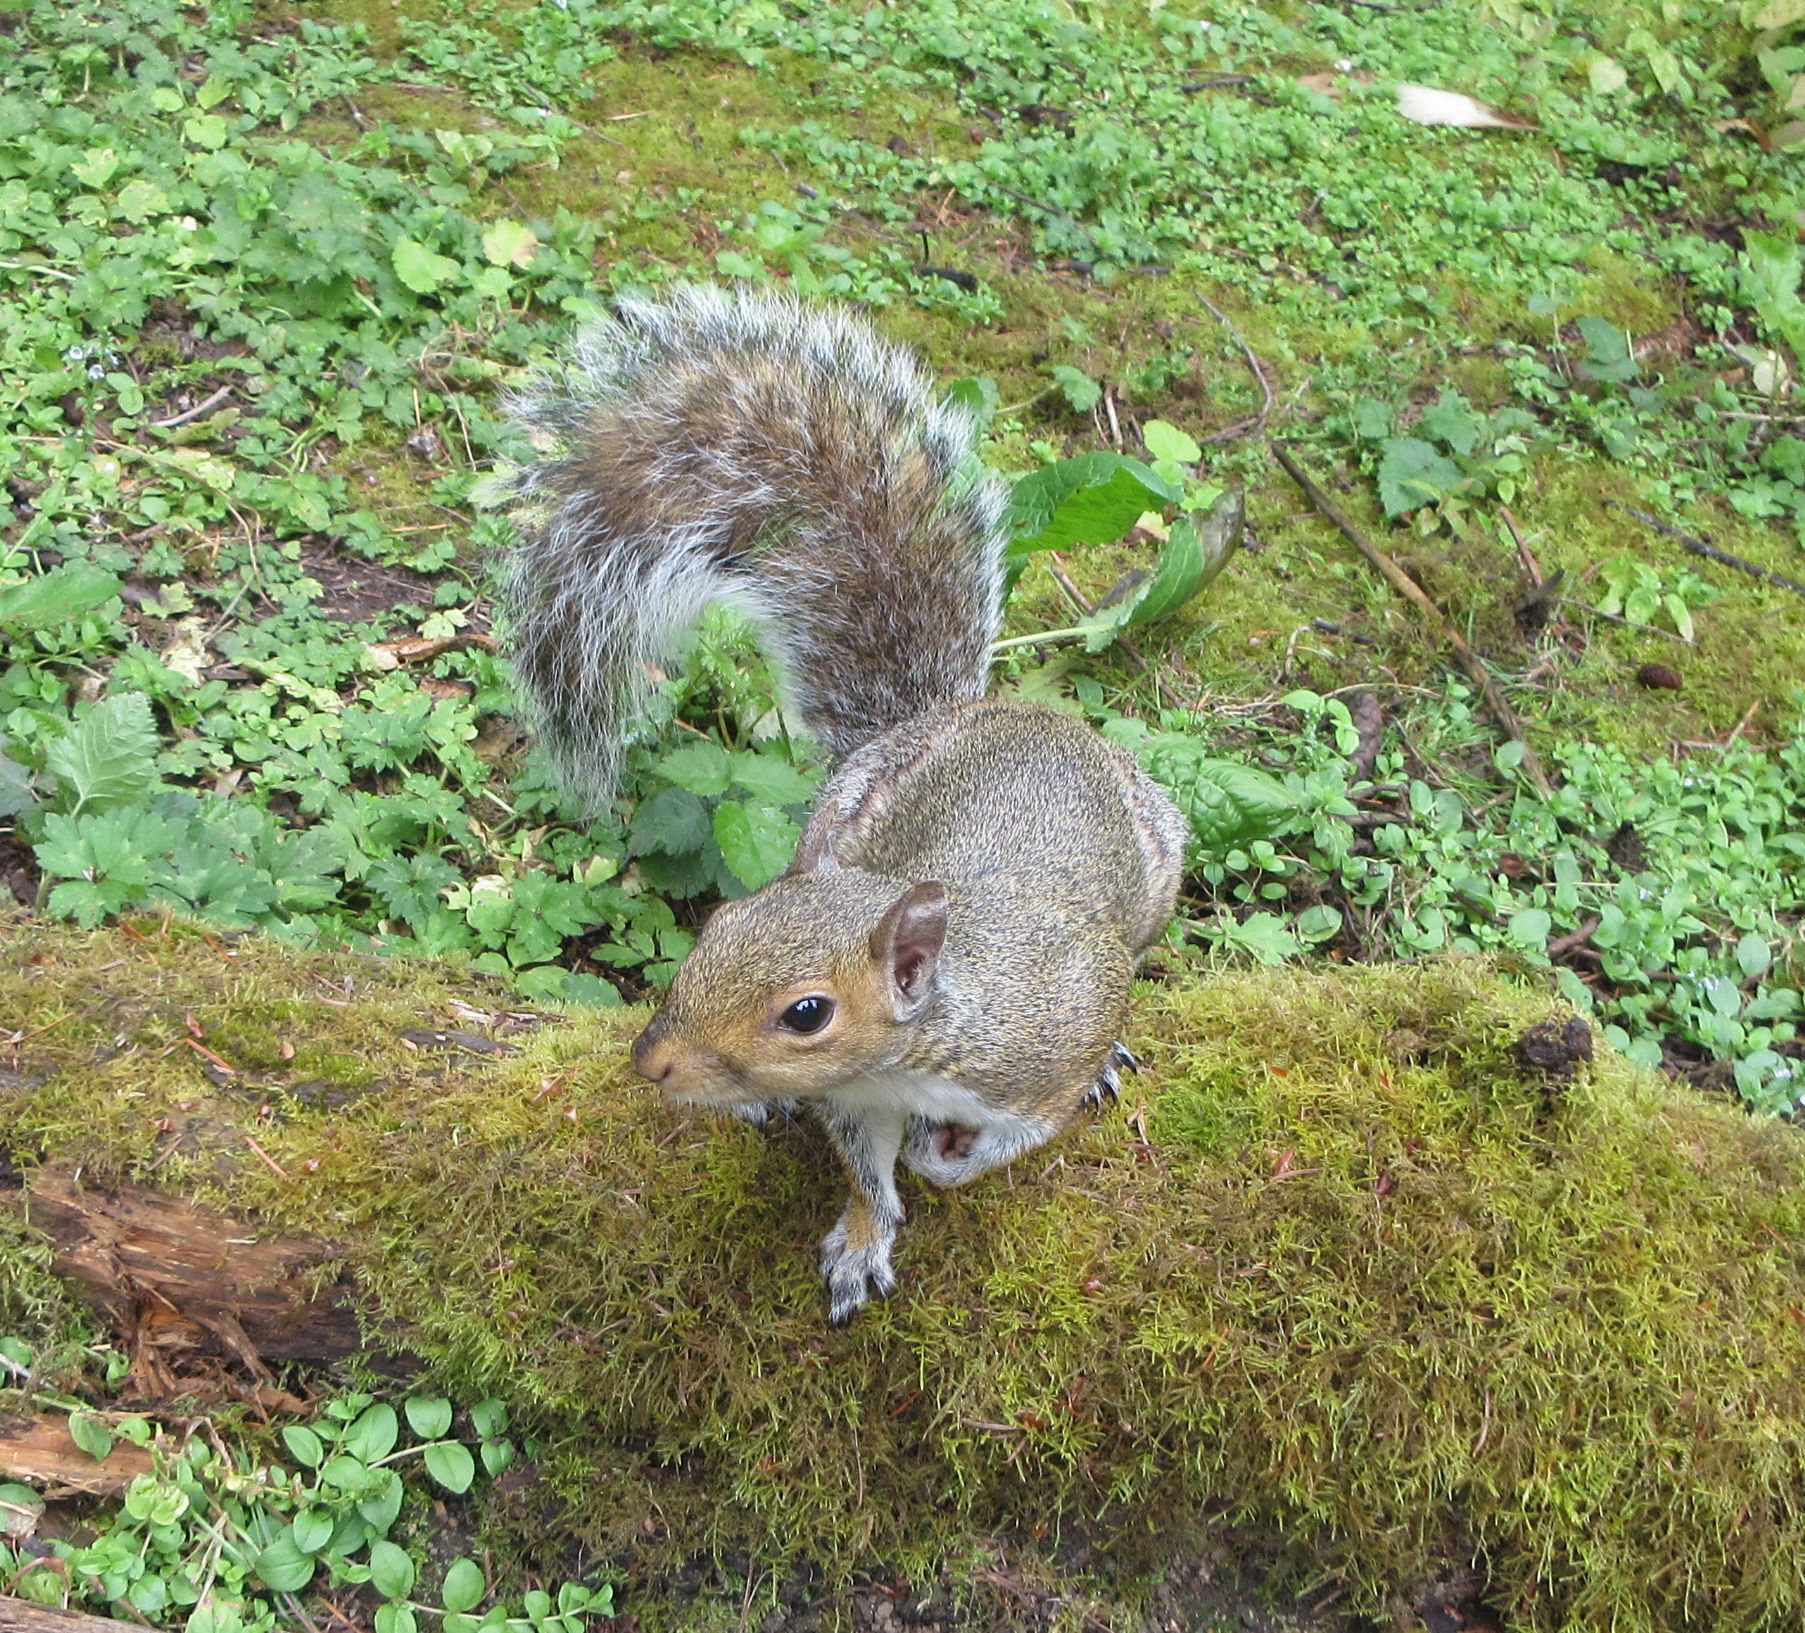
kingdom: Animalia
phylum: Chordata
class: Mammalia
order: Rodentia
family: Sciuridae
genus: Sciurus
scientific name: Sciurus carolinensis
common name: Eastern gray squirrel
